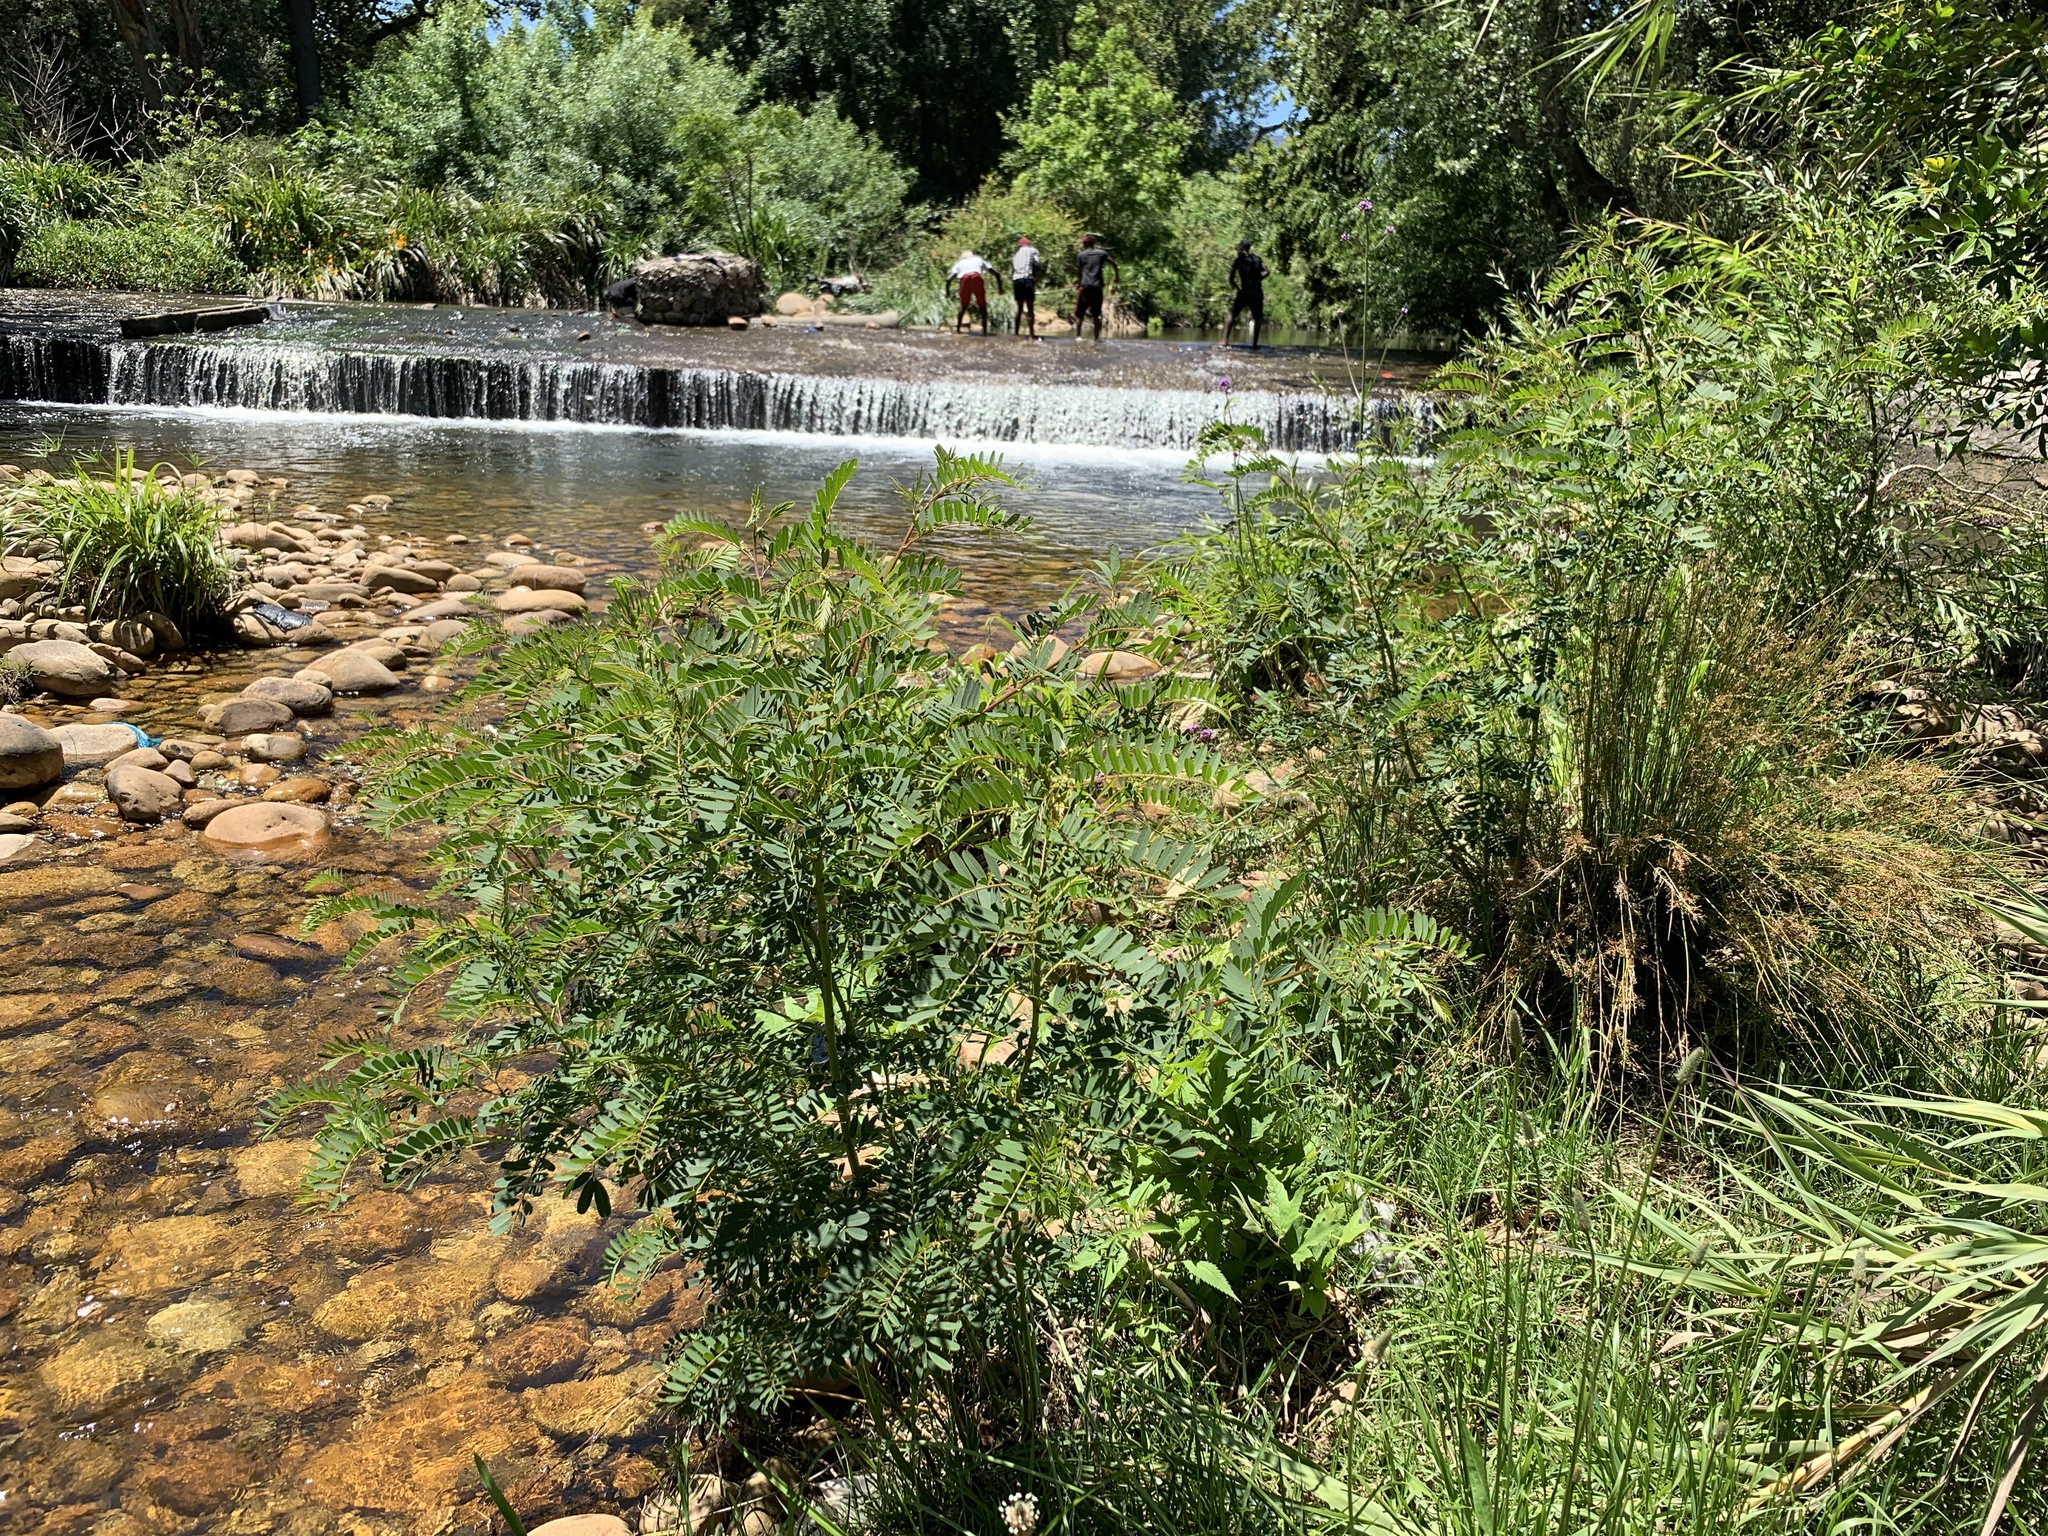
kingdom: Plantae
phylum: Tracheophyta
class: Magnoliopsida
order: Fabales
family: Fabaceae
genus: Sesbania
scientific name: Sesbania punicea
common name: Rattlebox
